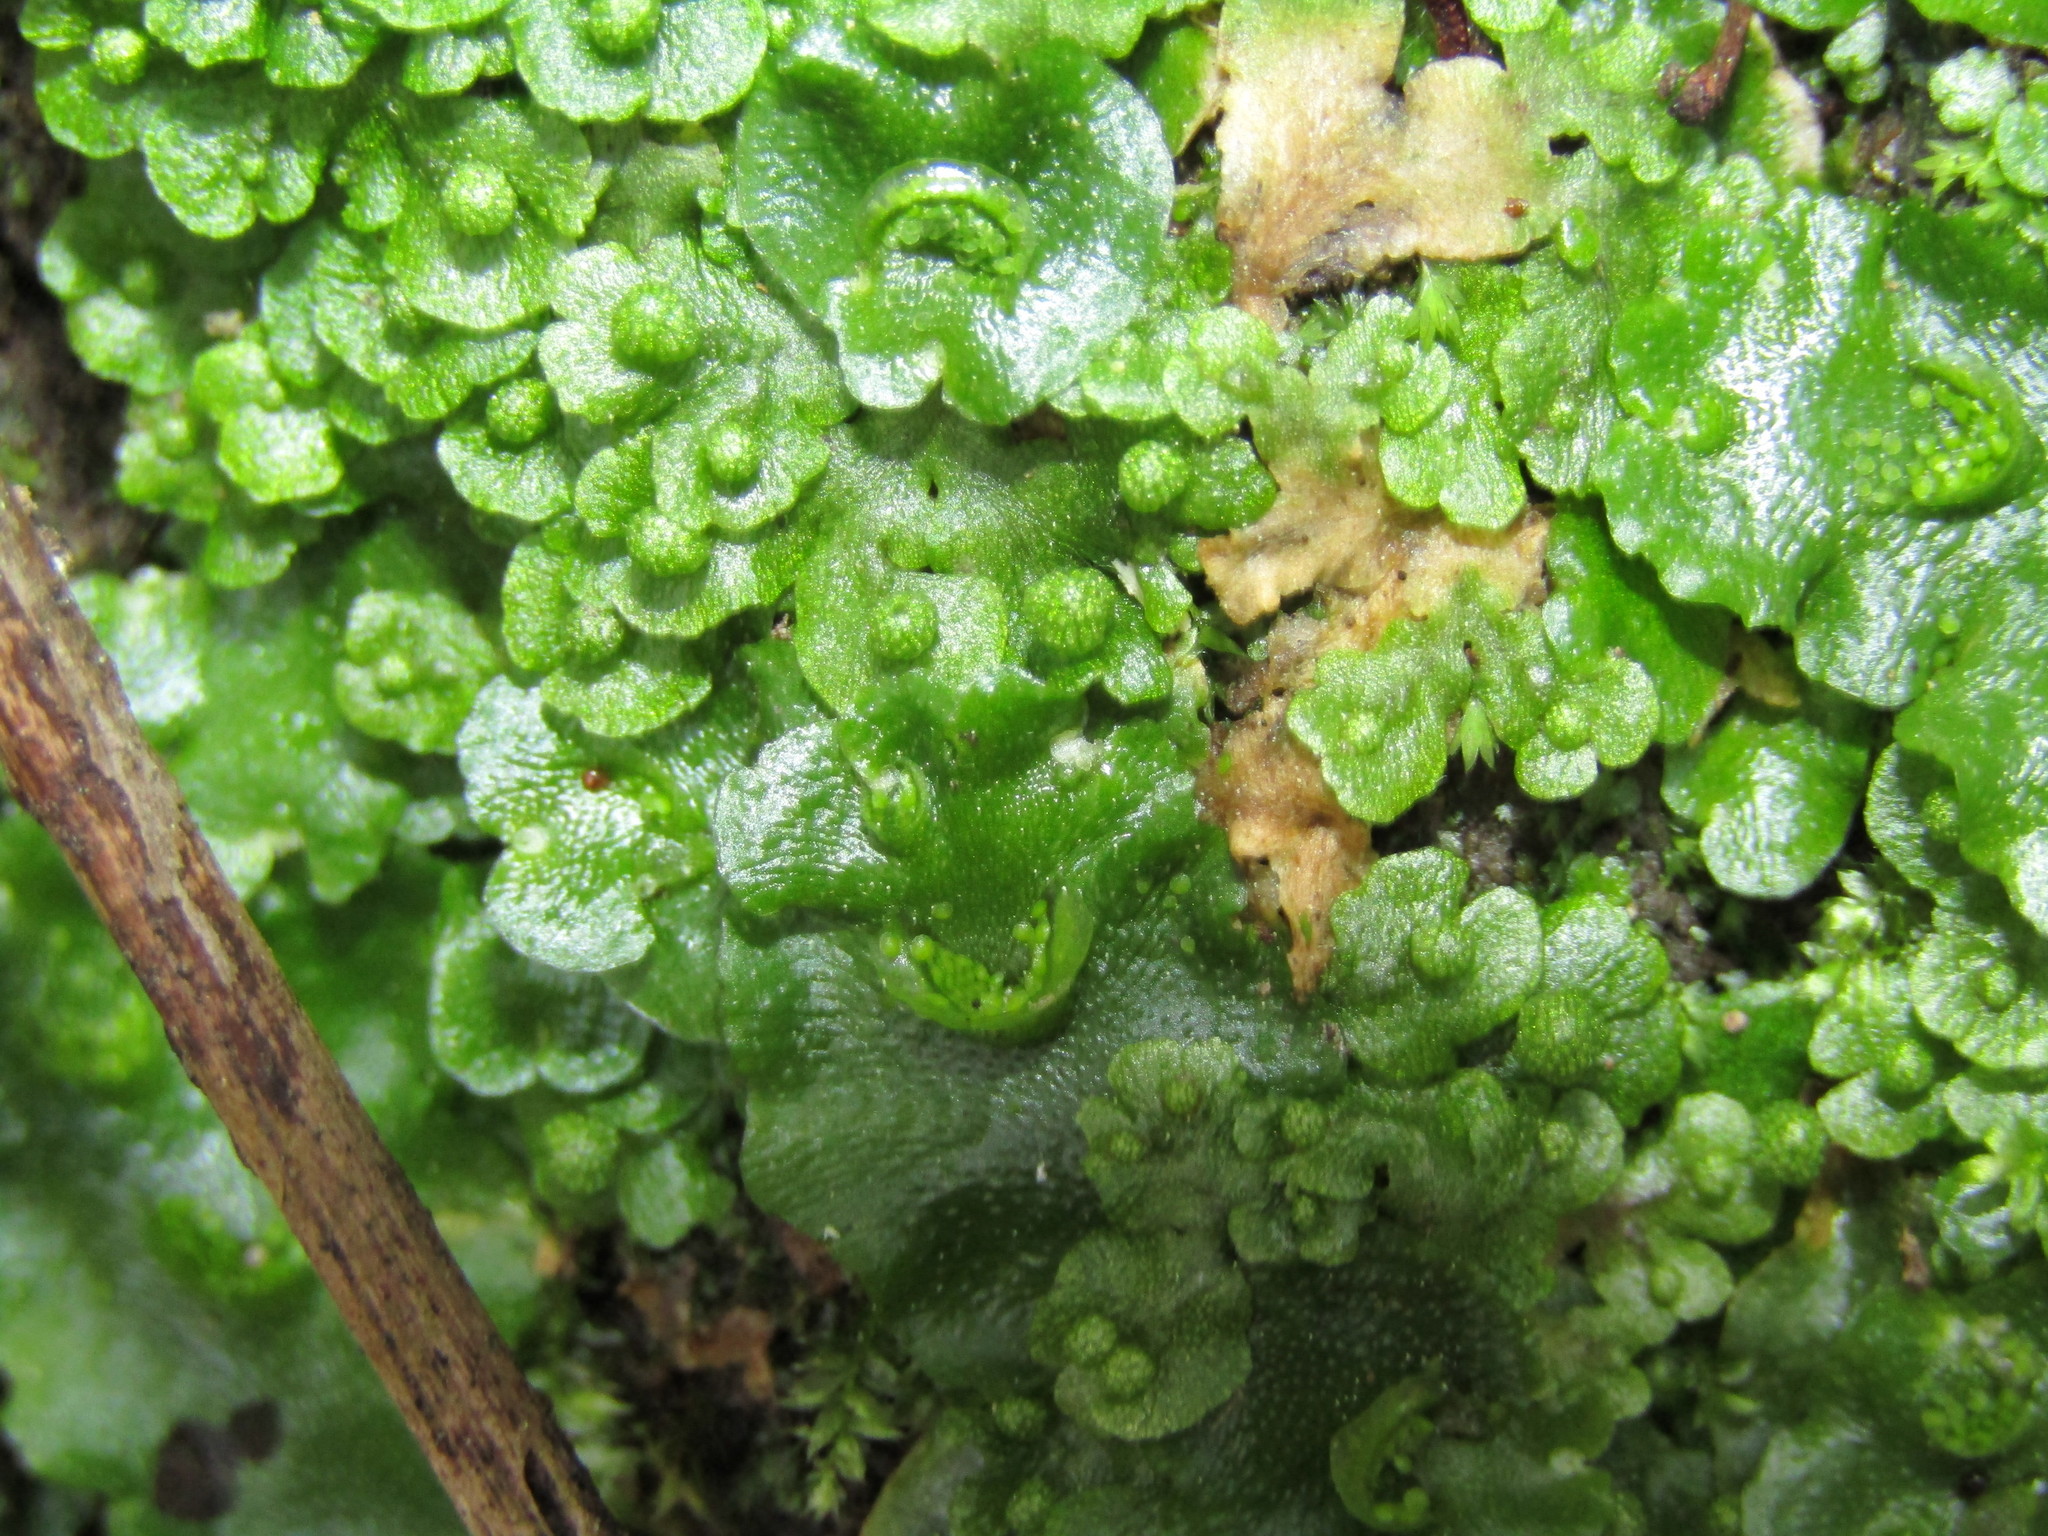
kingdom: Plantae
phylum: Marchantiophyta
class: Marchantiopsida
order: Marchantiales
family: Aytoniaceae
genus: Asterella
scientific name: Asterella tenera
